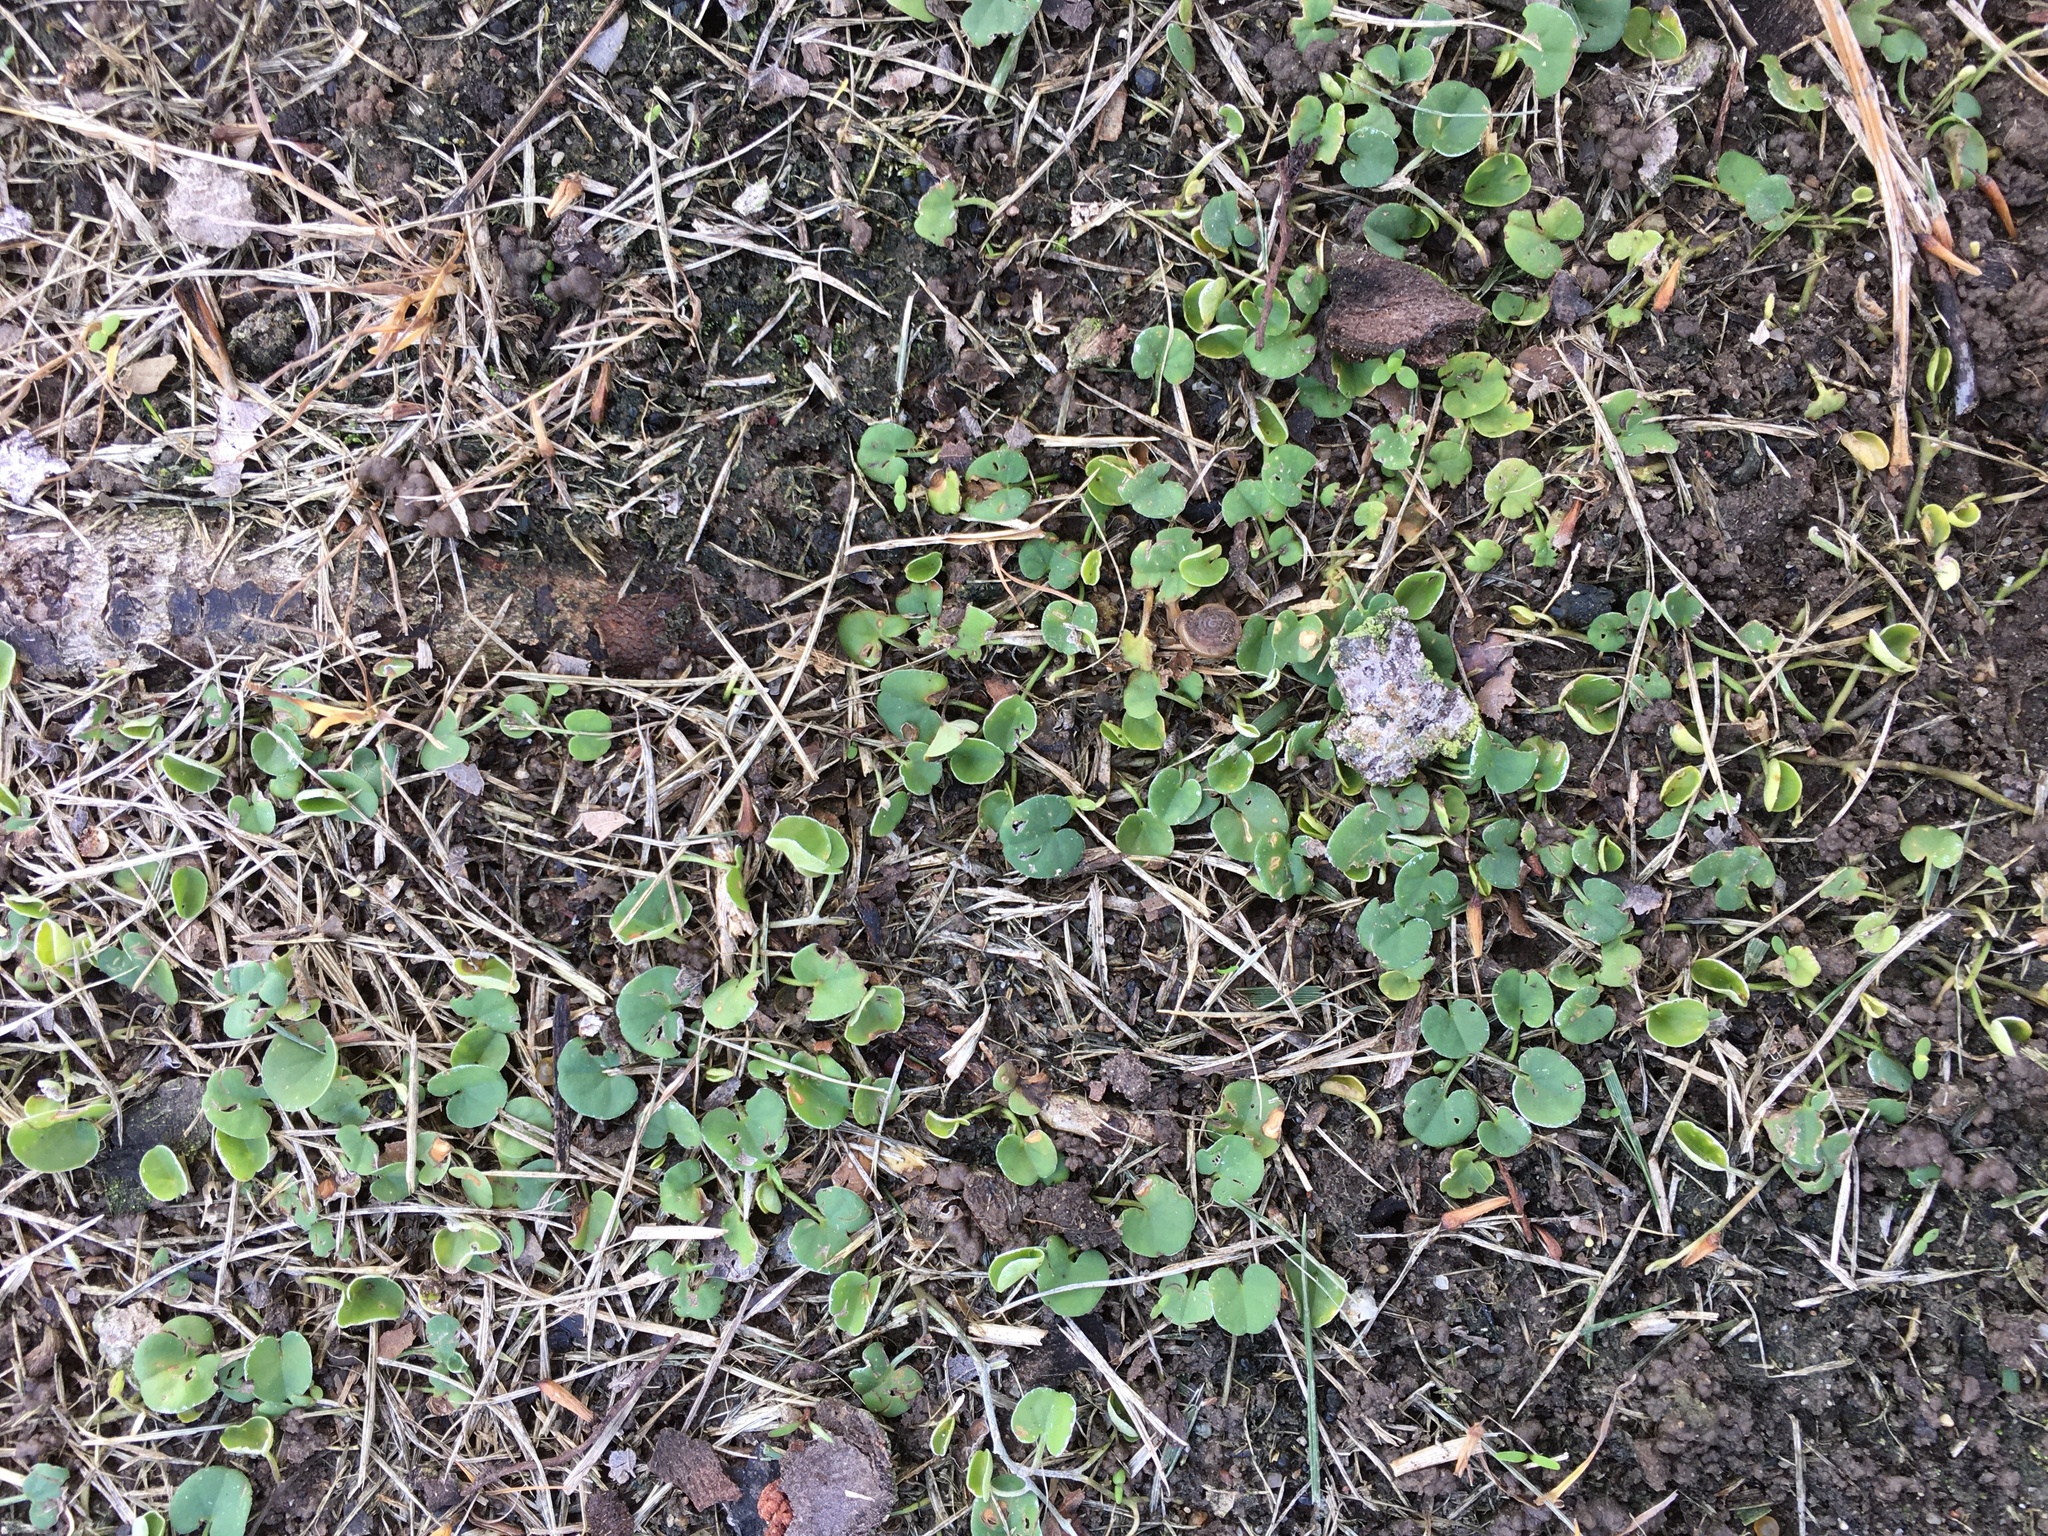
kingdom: Plantae
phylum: Tracheophyta
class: Magnoliopsida
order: Solanales
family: Convolvulaceae
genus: Dichondra
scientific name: Dichondra micrantha
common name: Kidneyweed
